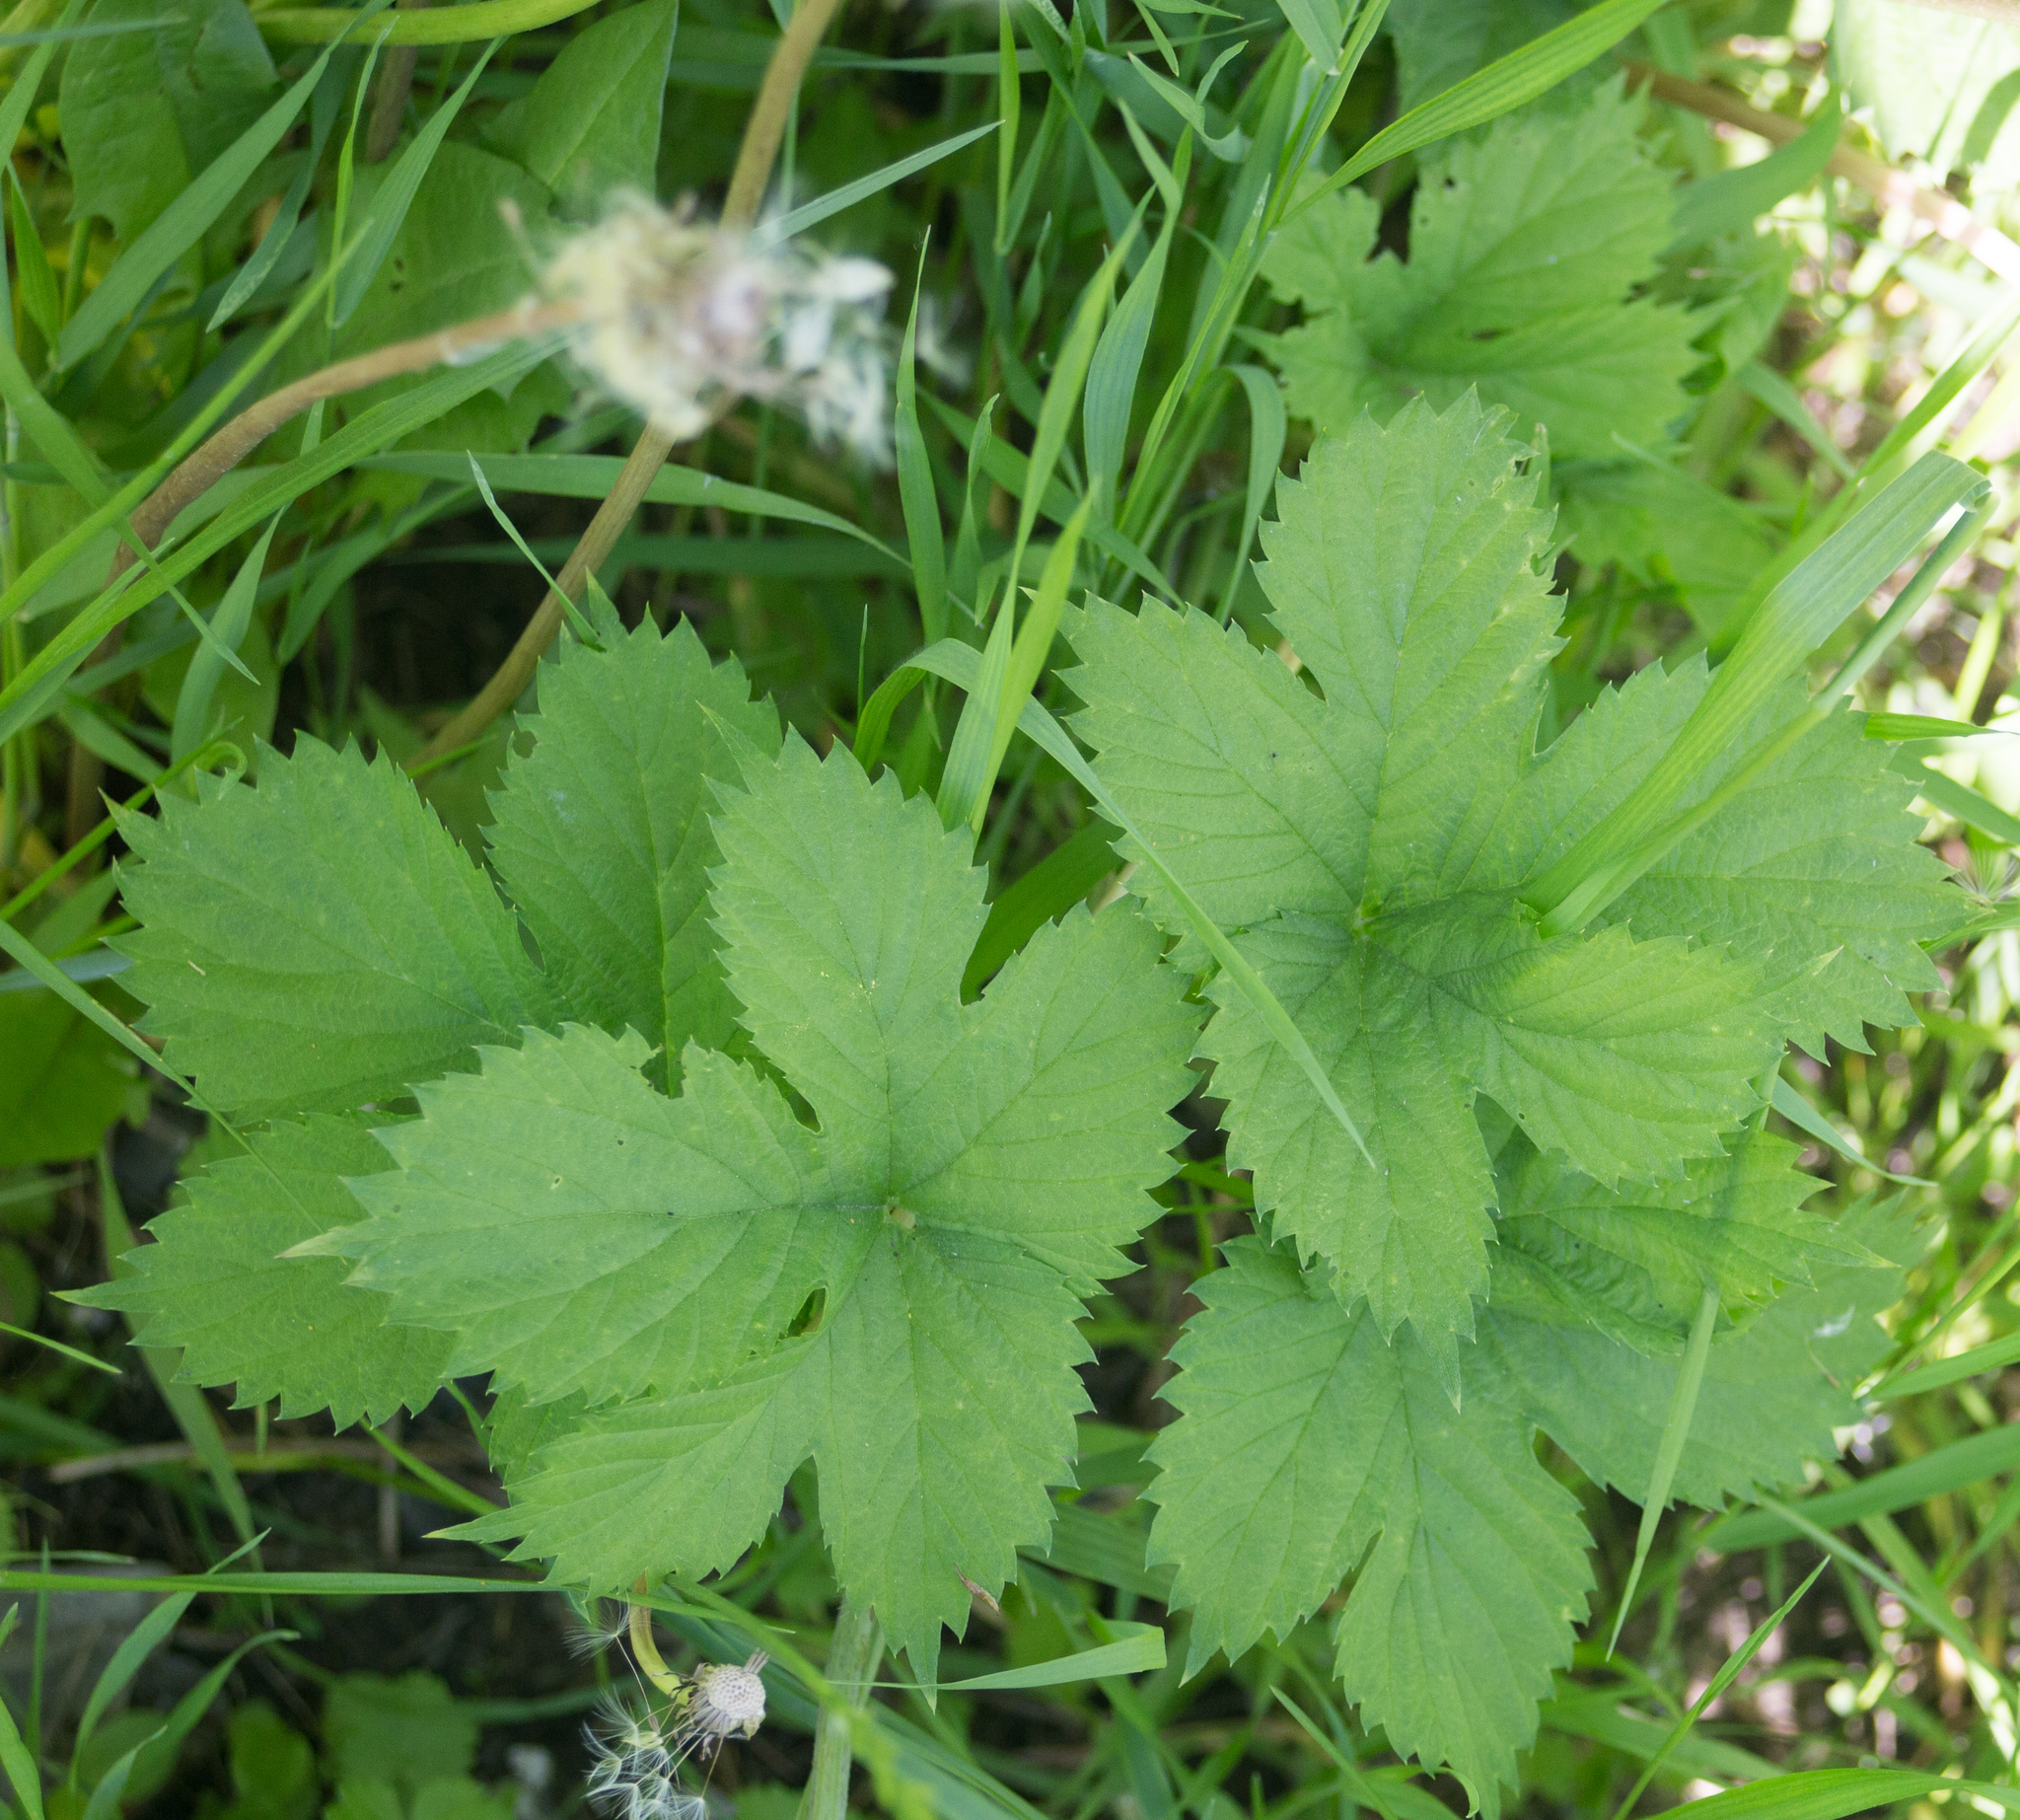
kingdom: Plantae
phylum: Tracheophyta
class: Magnoliopsida
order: Rosales
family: Cannabaceae
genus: Humulus
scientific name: Humulus lupulus
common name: Hop
